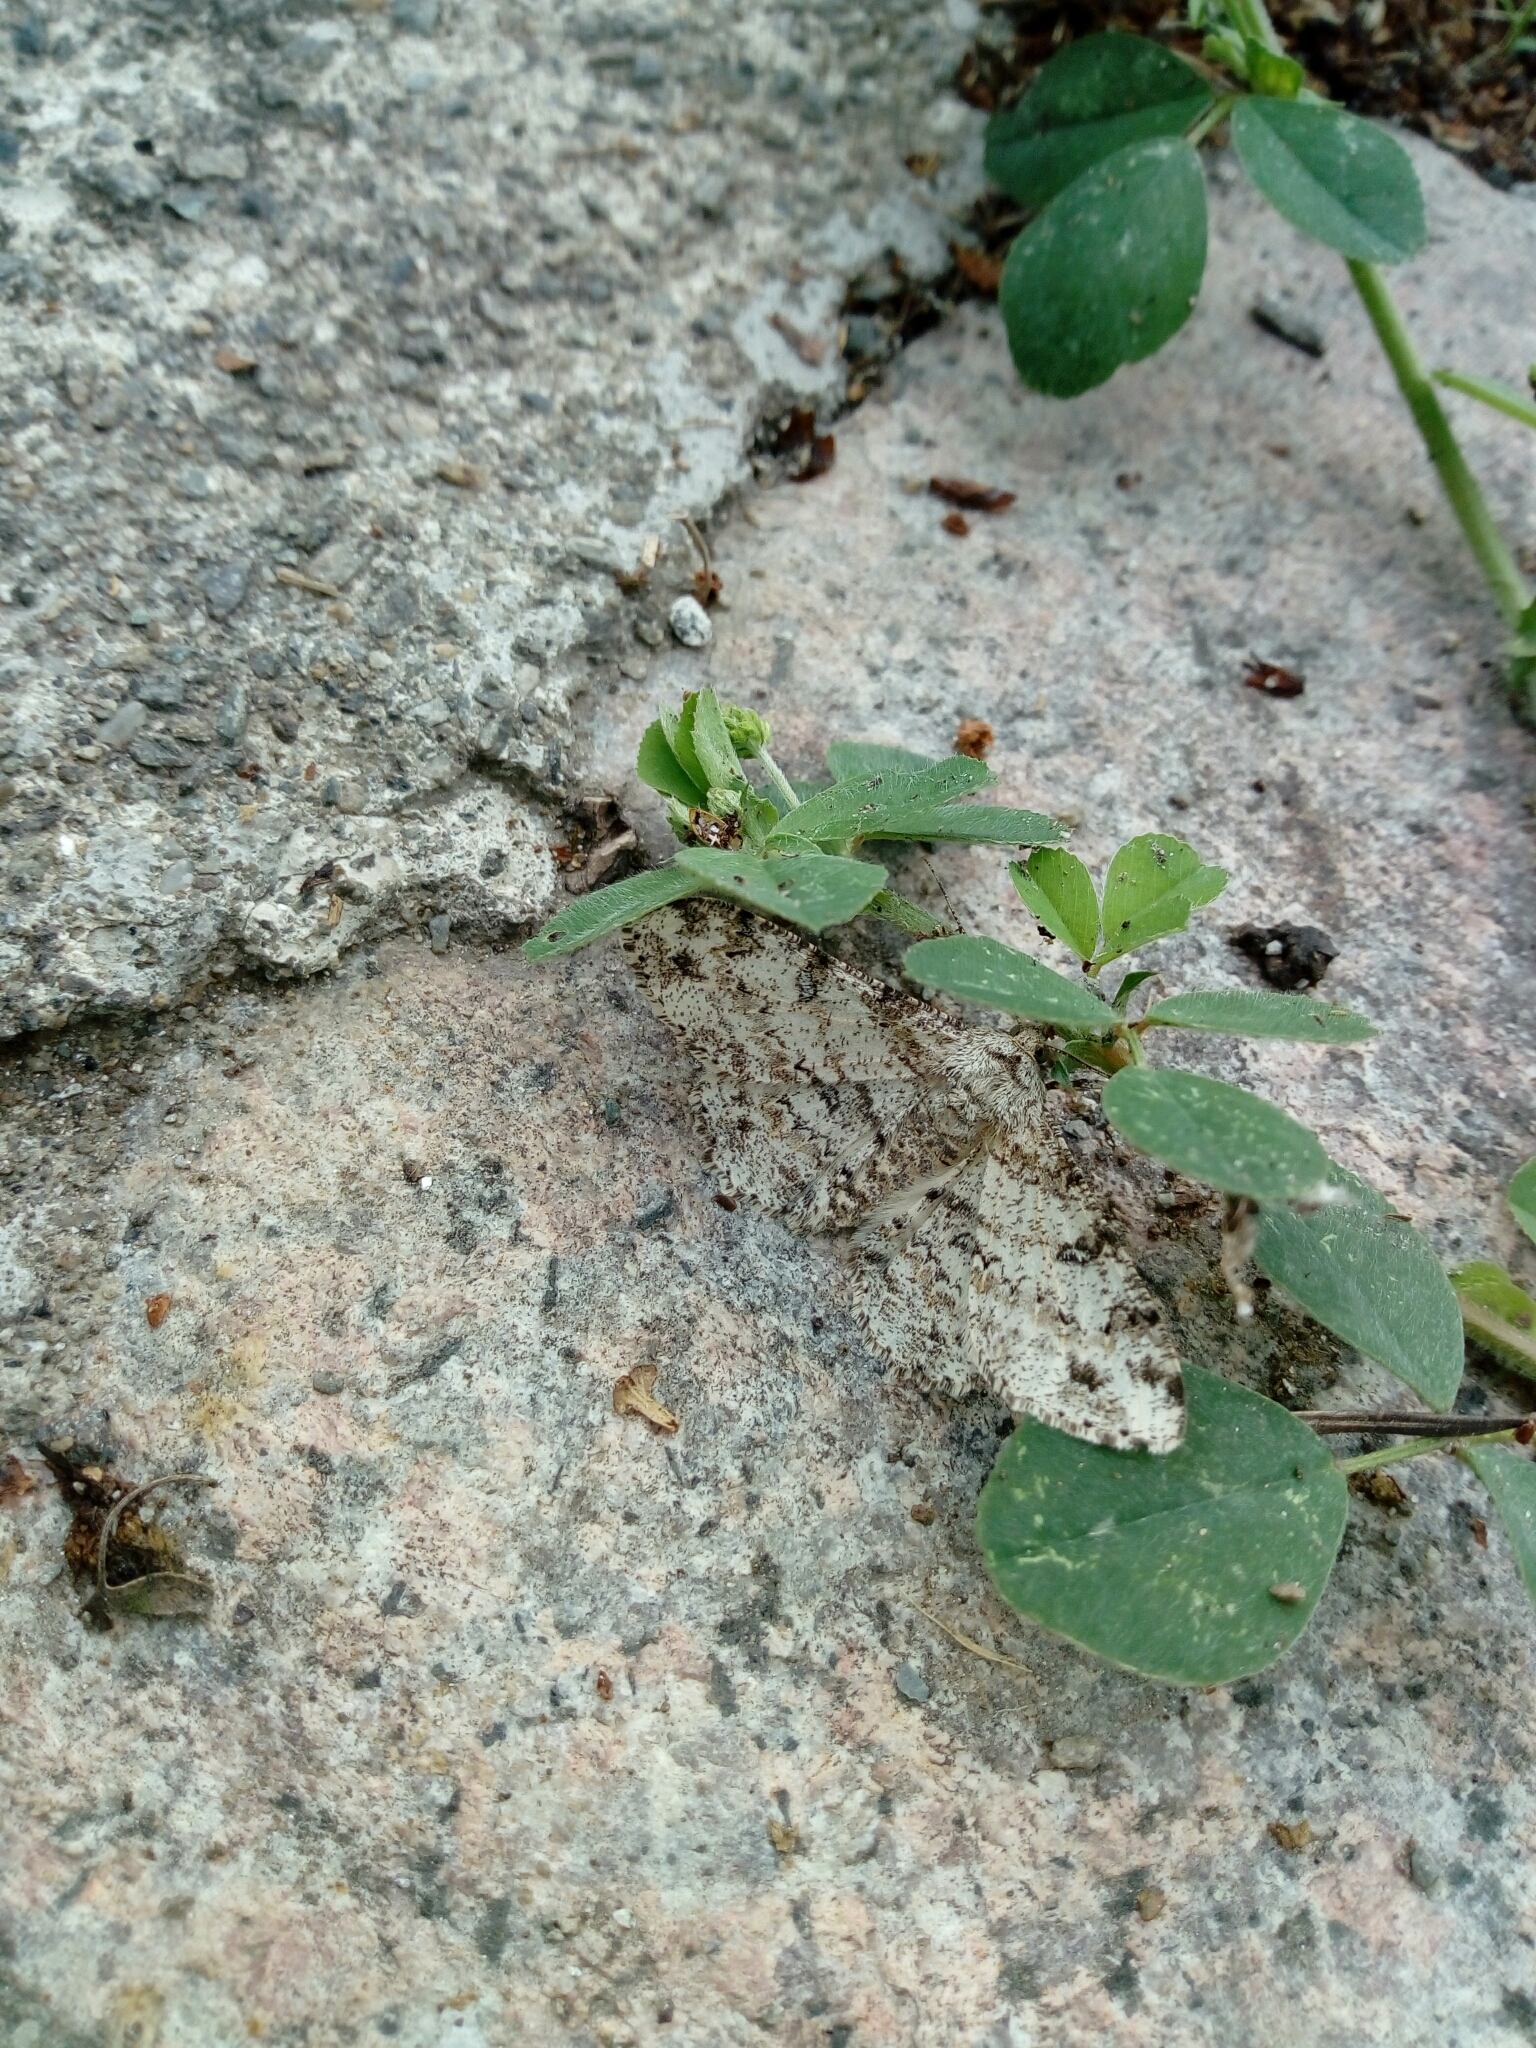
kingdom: Animalia
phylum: Arthropoda
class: Insecta
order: Lepidoptera
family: Geometridae
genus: Ascotis
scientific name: Ascotis selenaria
